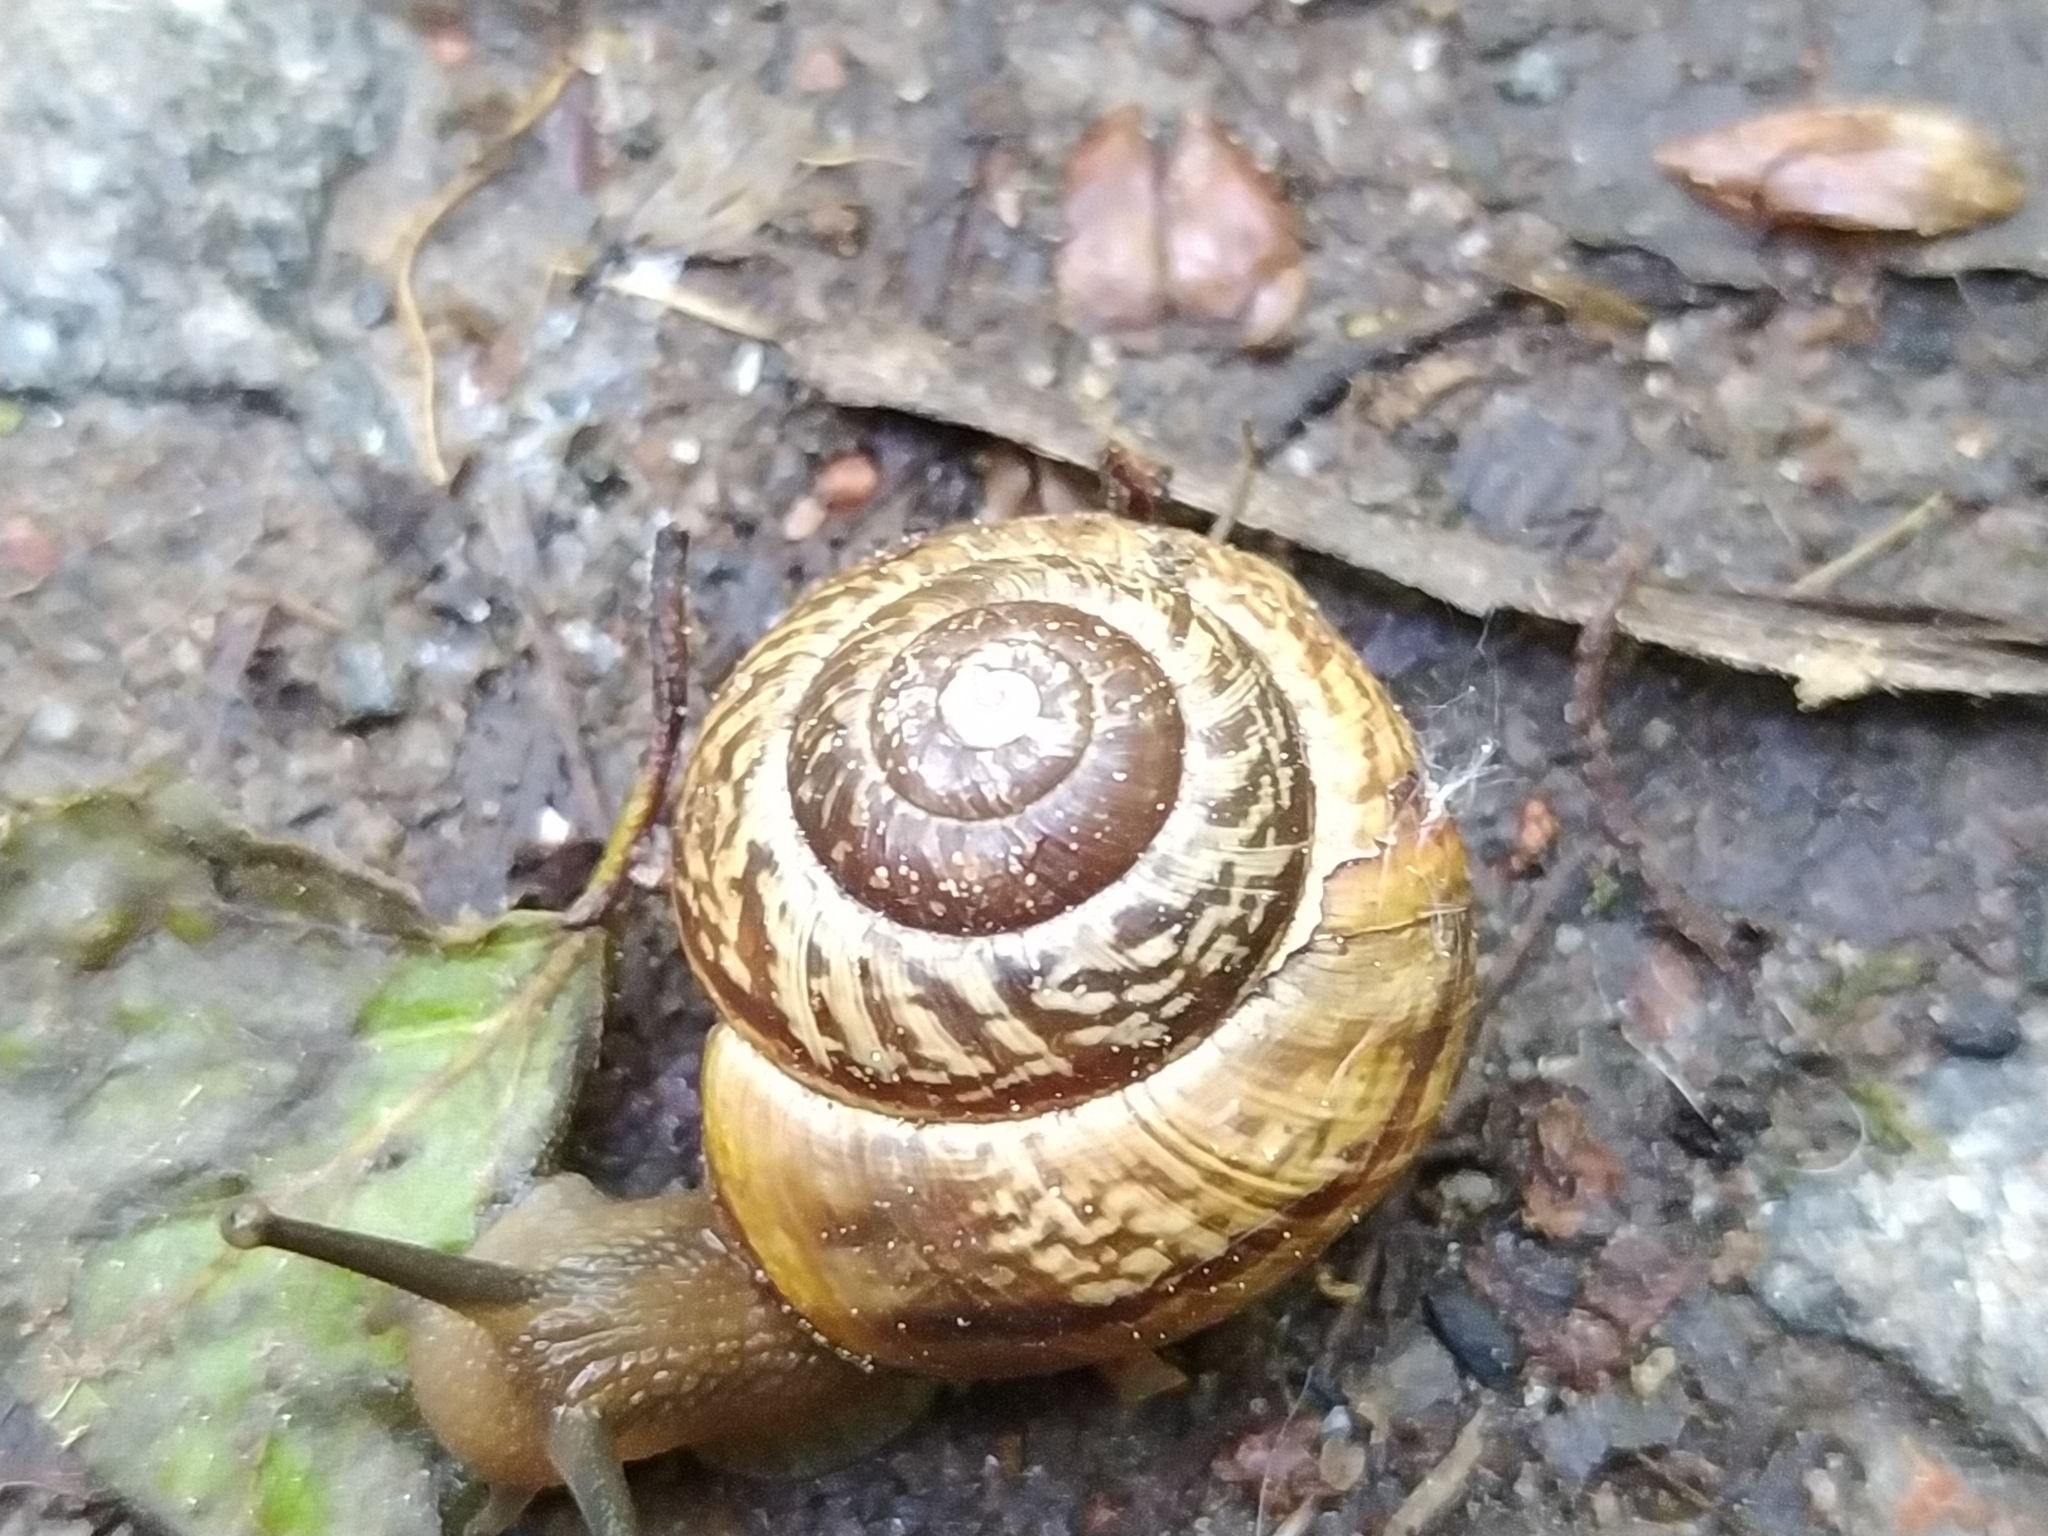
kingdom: Animalia
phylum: Mollusca
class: Gastropoda
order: Stylommatophora
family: Helicidae
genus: Arianta
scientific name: Arianta arbustorum
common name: Copse snail
